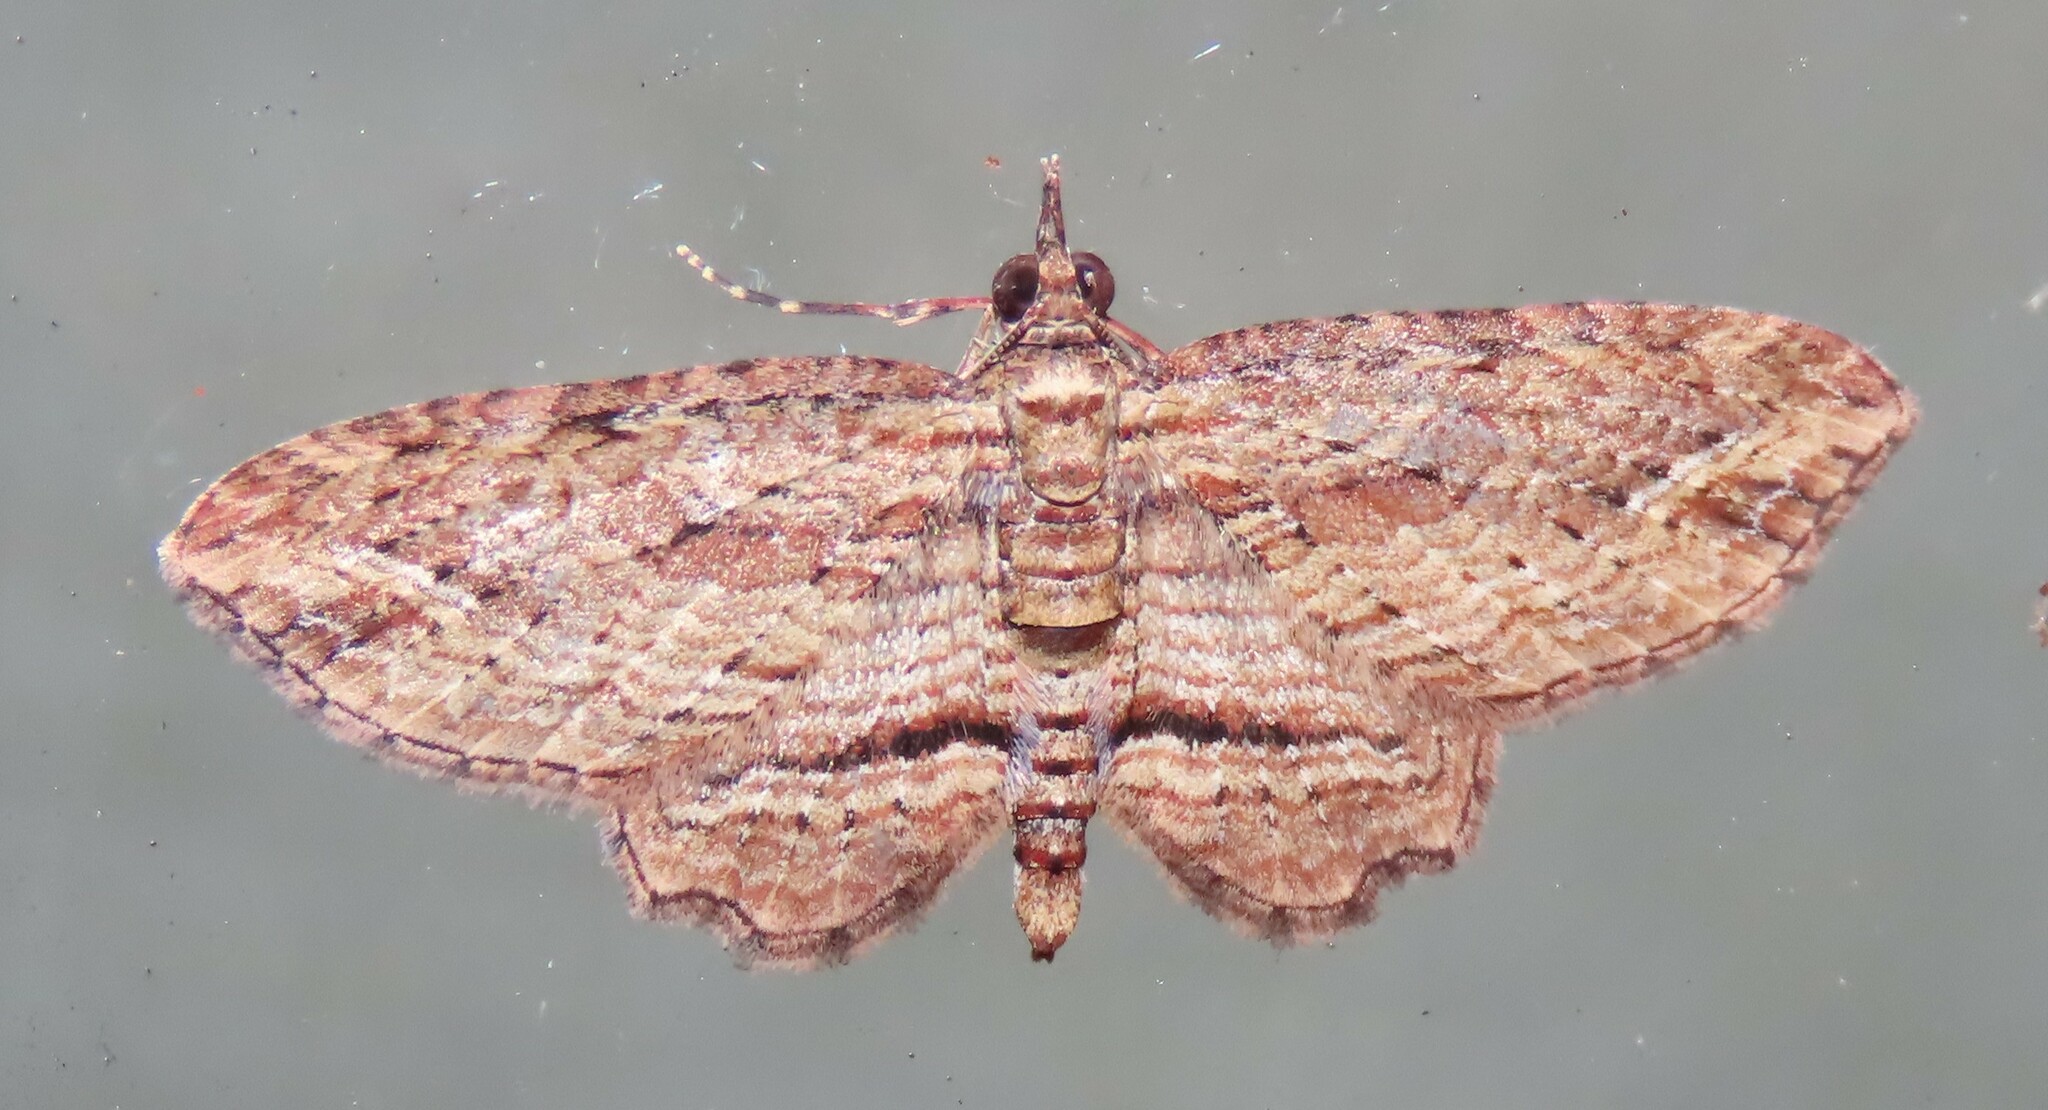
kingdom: Animalia
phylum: Arthropoda
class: Insecta
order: Lepidoptera
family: Geometridae
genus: Chloroclystis
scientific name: Chloroclystis filata
